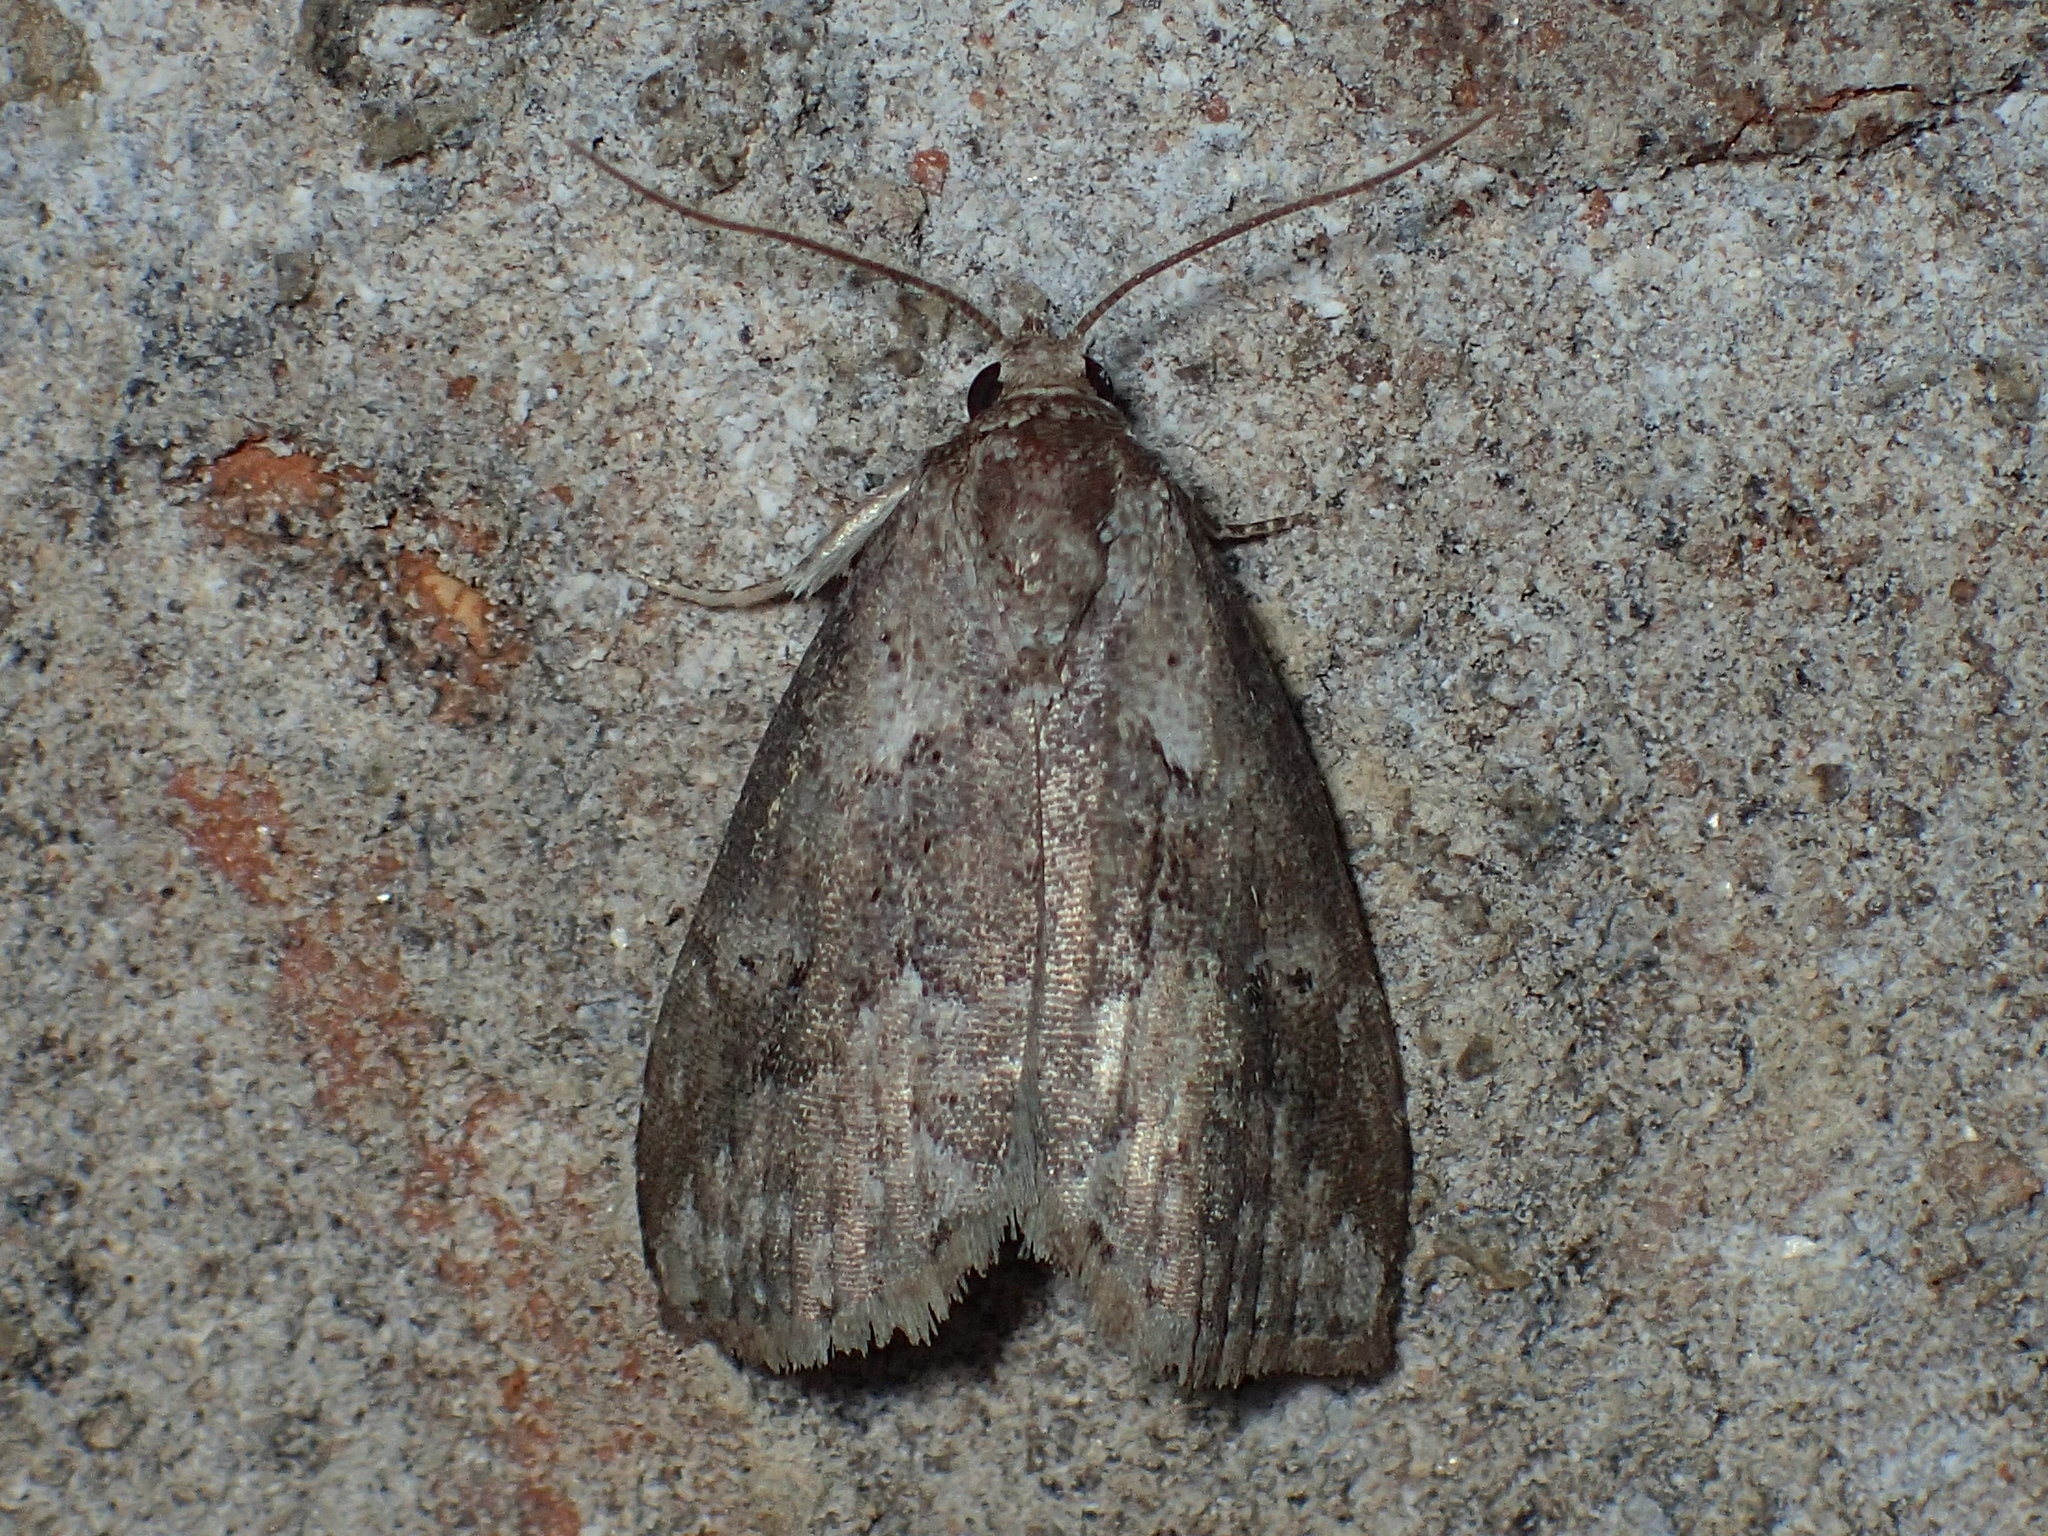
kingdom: Animalia
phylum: Arthropoda
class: Insecta
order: Lepidoptera
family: Erebidae
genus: Hyperstrotia
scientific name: Hyperstrotia nana
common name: White-lined graylet
